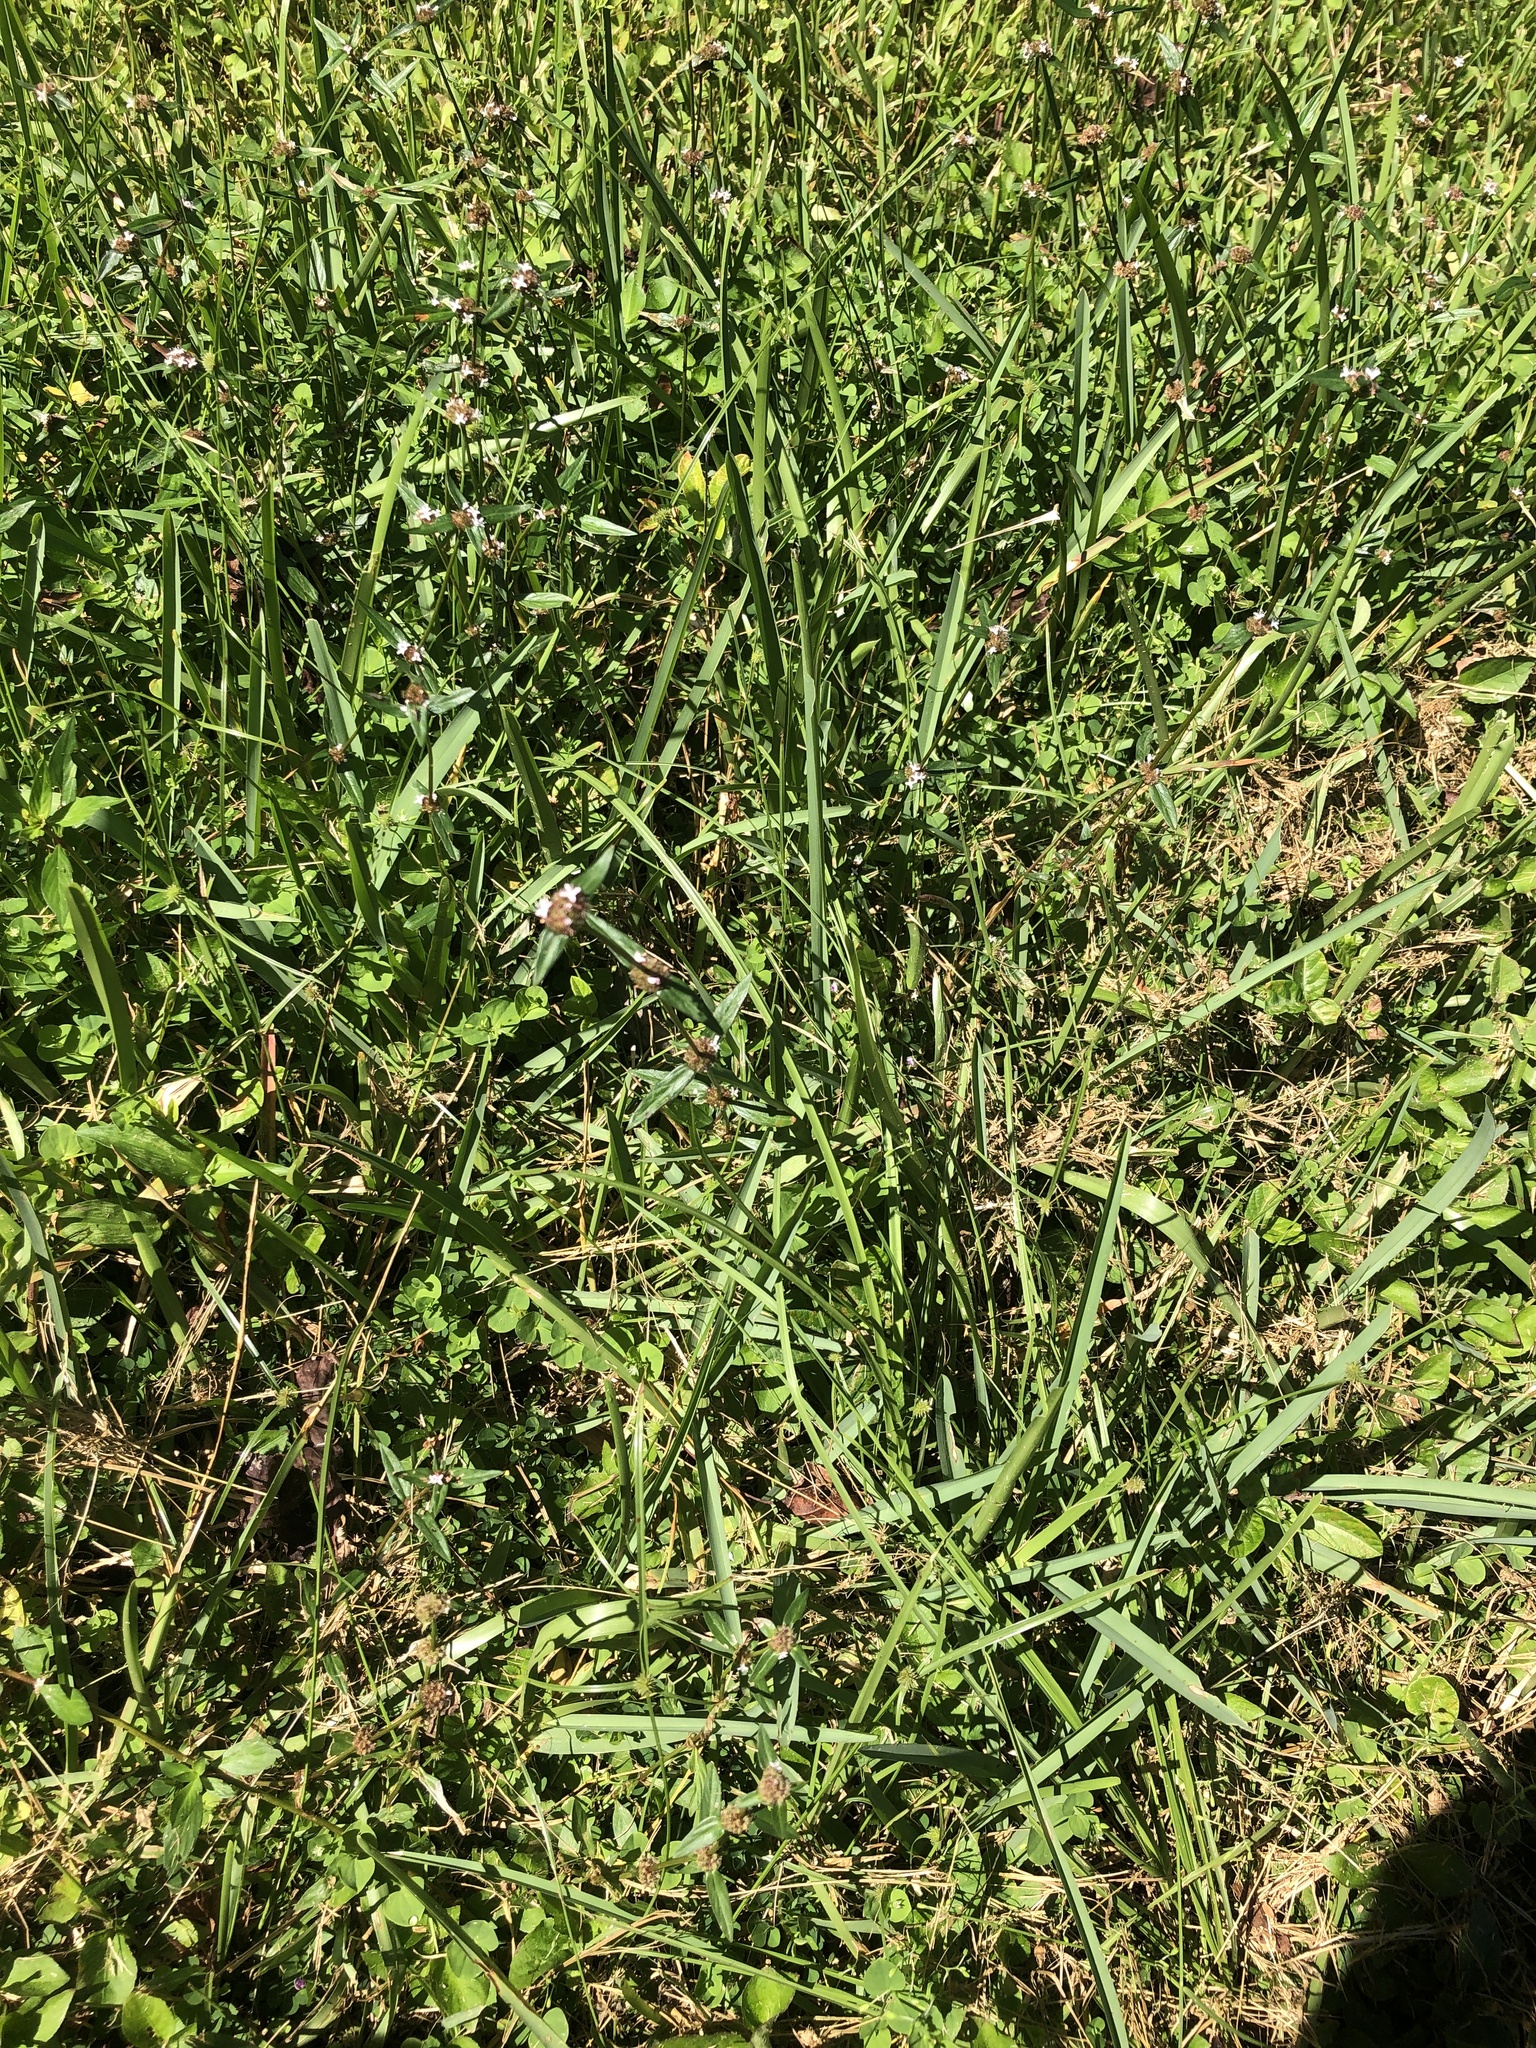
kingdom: Plantae
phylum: Tracheophyta
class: Magnoliopsida
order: Gentianales
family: Rubiaceae
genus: Spermacoce
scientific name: Spermacoce remota
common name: Woodland false buttonweed
